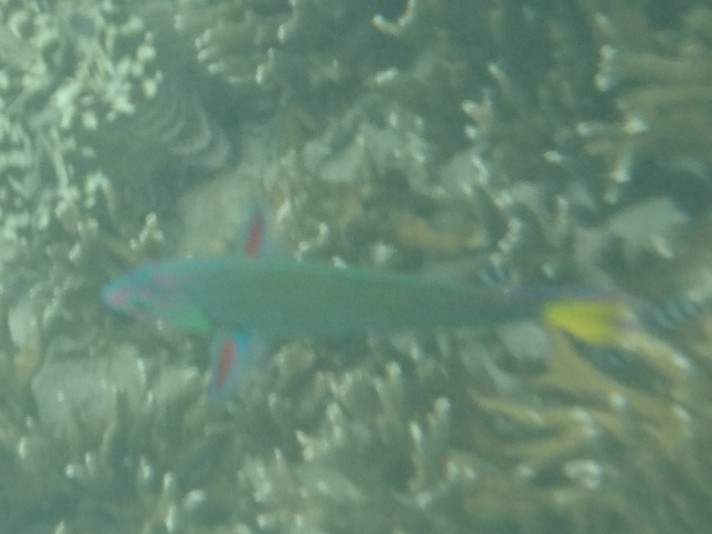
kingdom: Animalia
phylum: Chordata
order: Perciformes
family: Labridae
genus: Thalassoma
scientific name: Thalassoma lunare
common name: Blue wrasse
